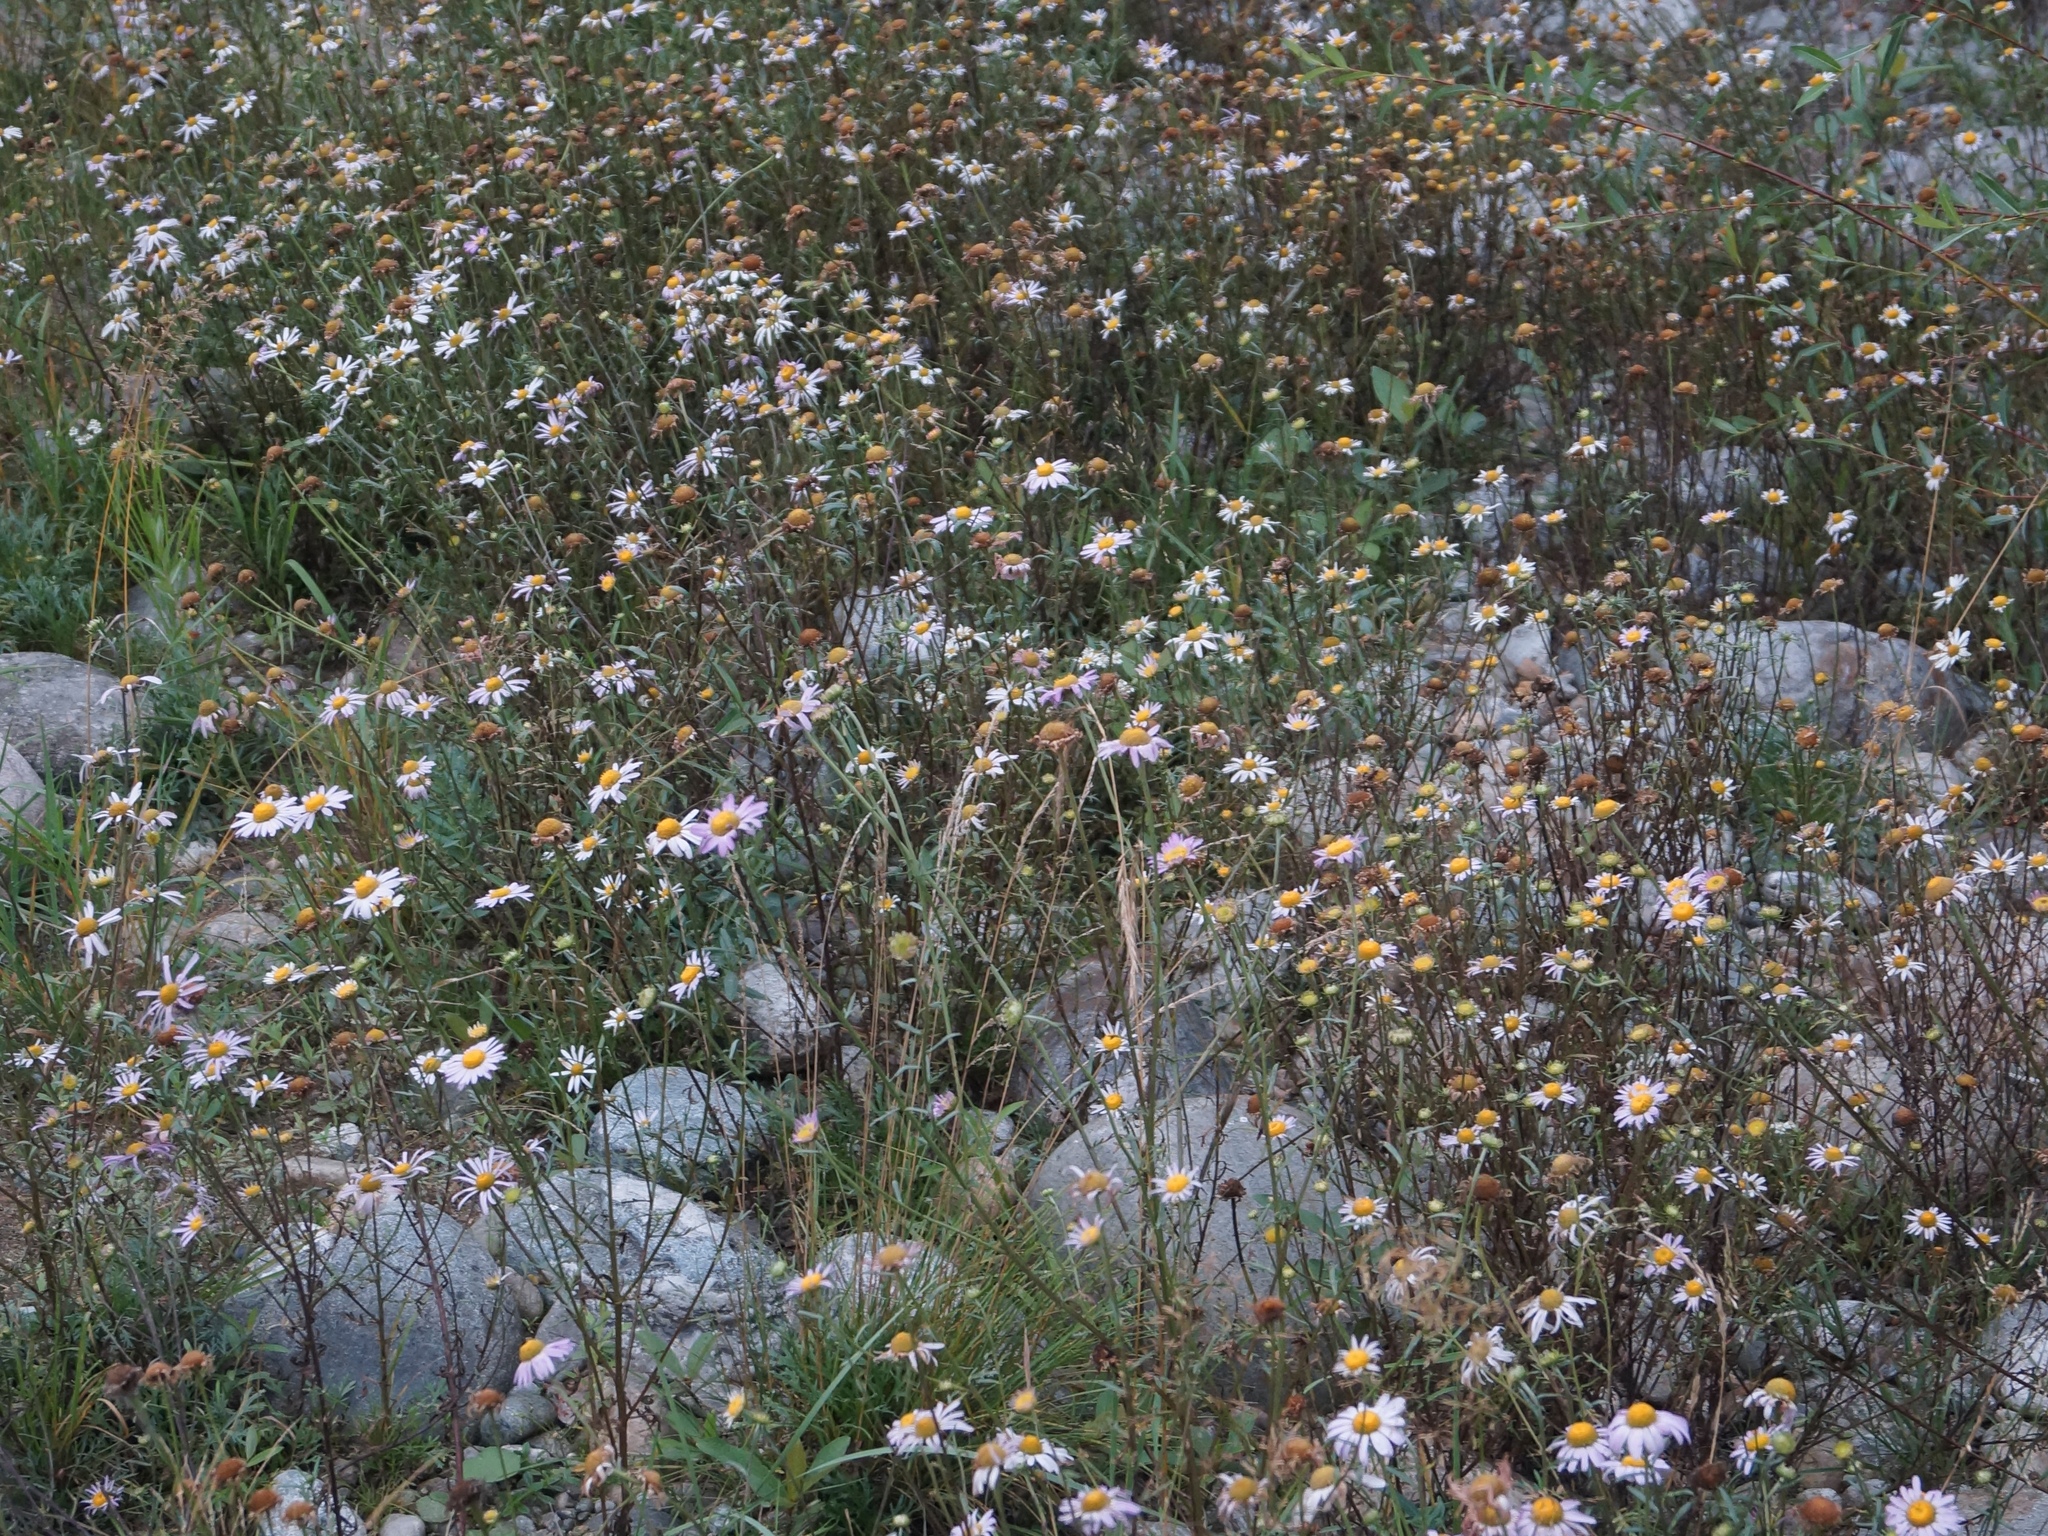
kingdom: Plantae
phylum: Tracheophyta
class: Magnoliopsida
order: Asterales
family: Asteraceae
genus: Chrysanthemum
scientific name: Chrysanthemum zawadzkii
